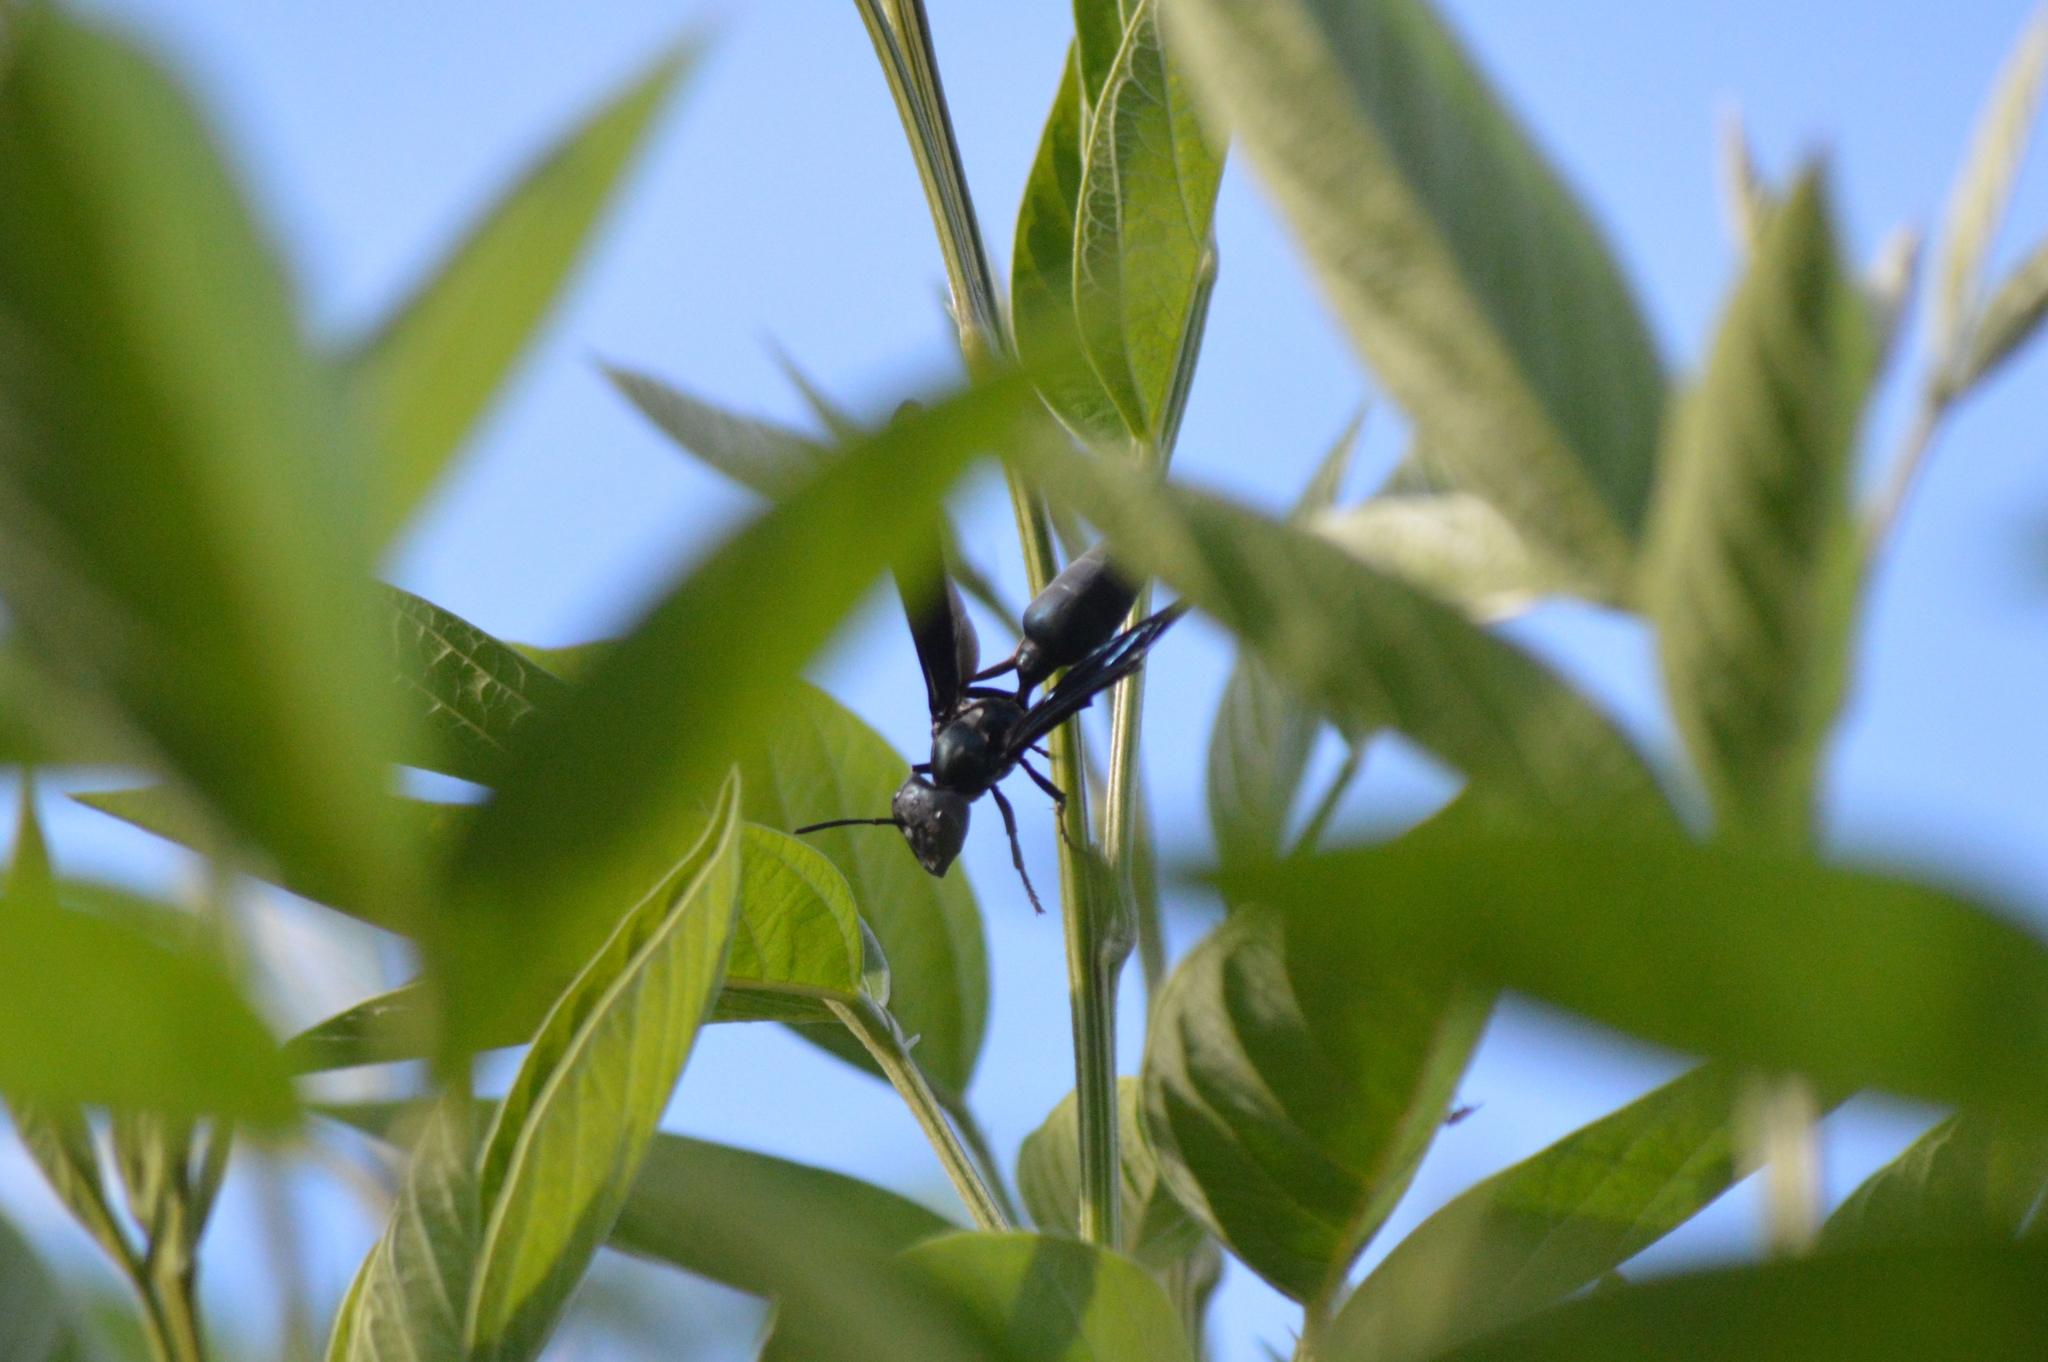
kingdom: Animalia
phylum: Arthropoda
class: Insecta
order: Hymenoptera
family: Vespidae
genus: Synoeca
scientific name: Synoeca surinama
